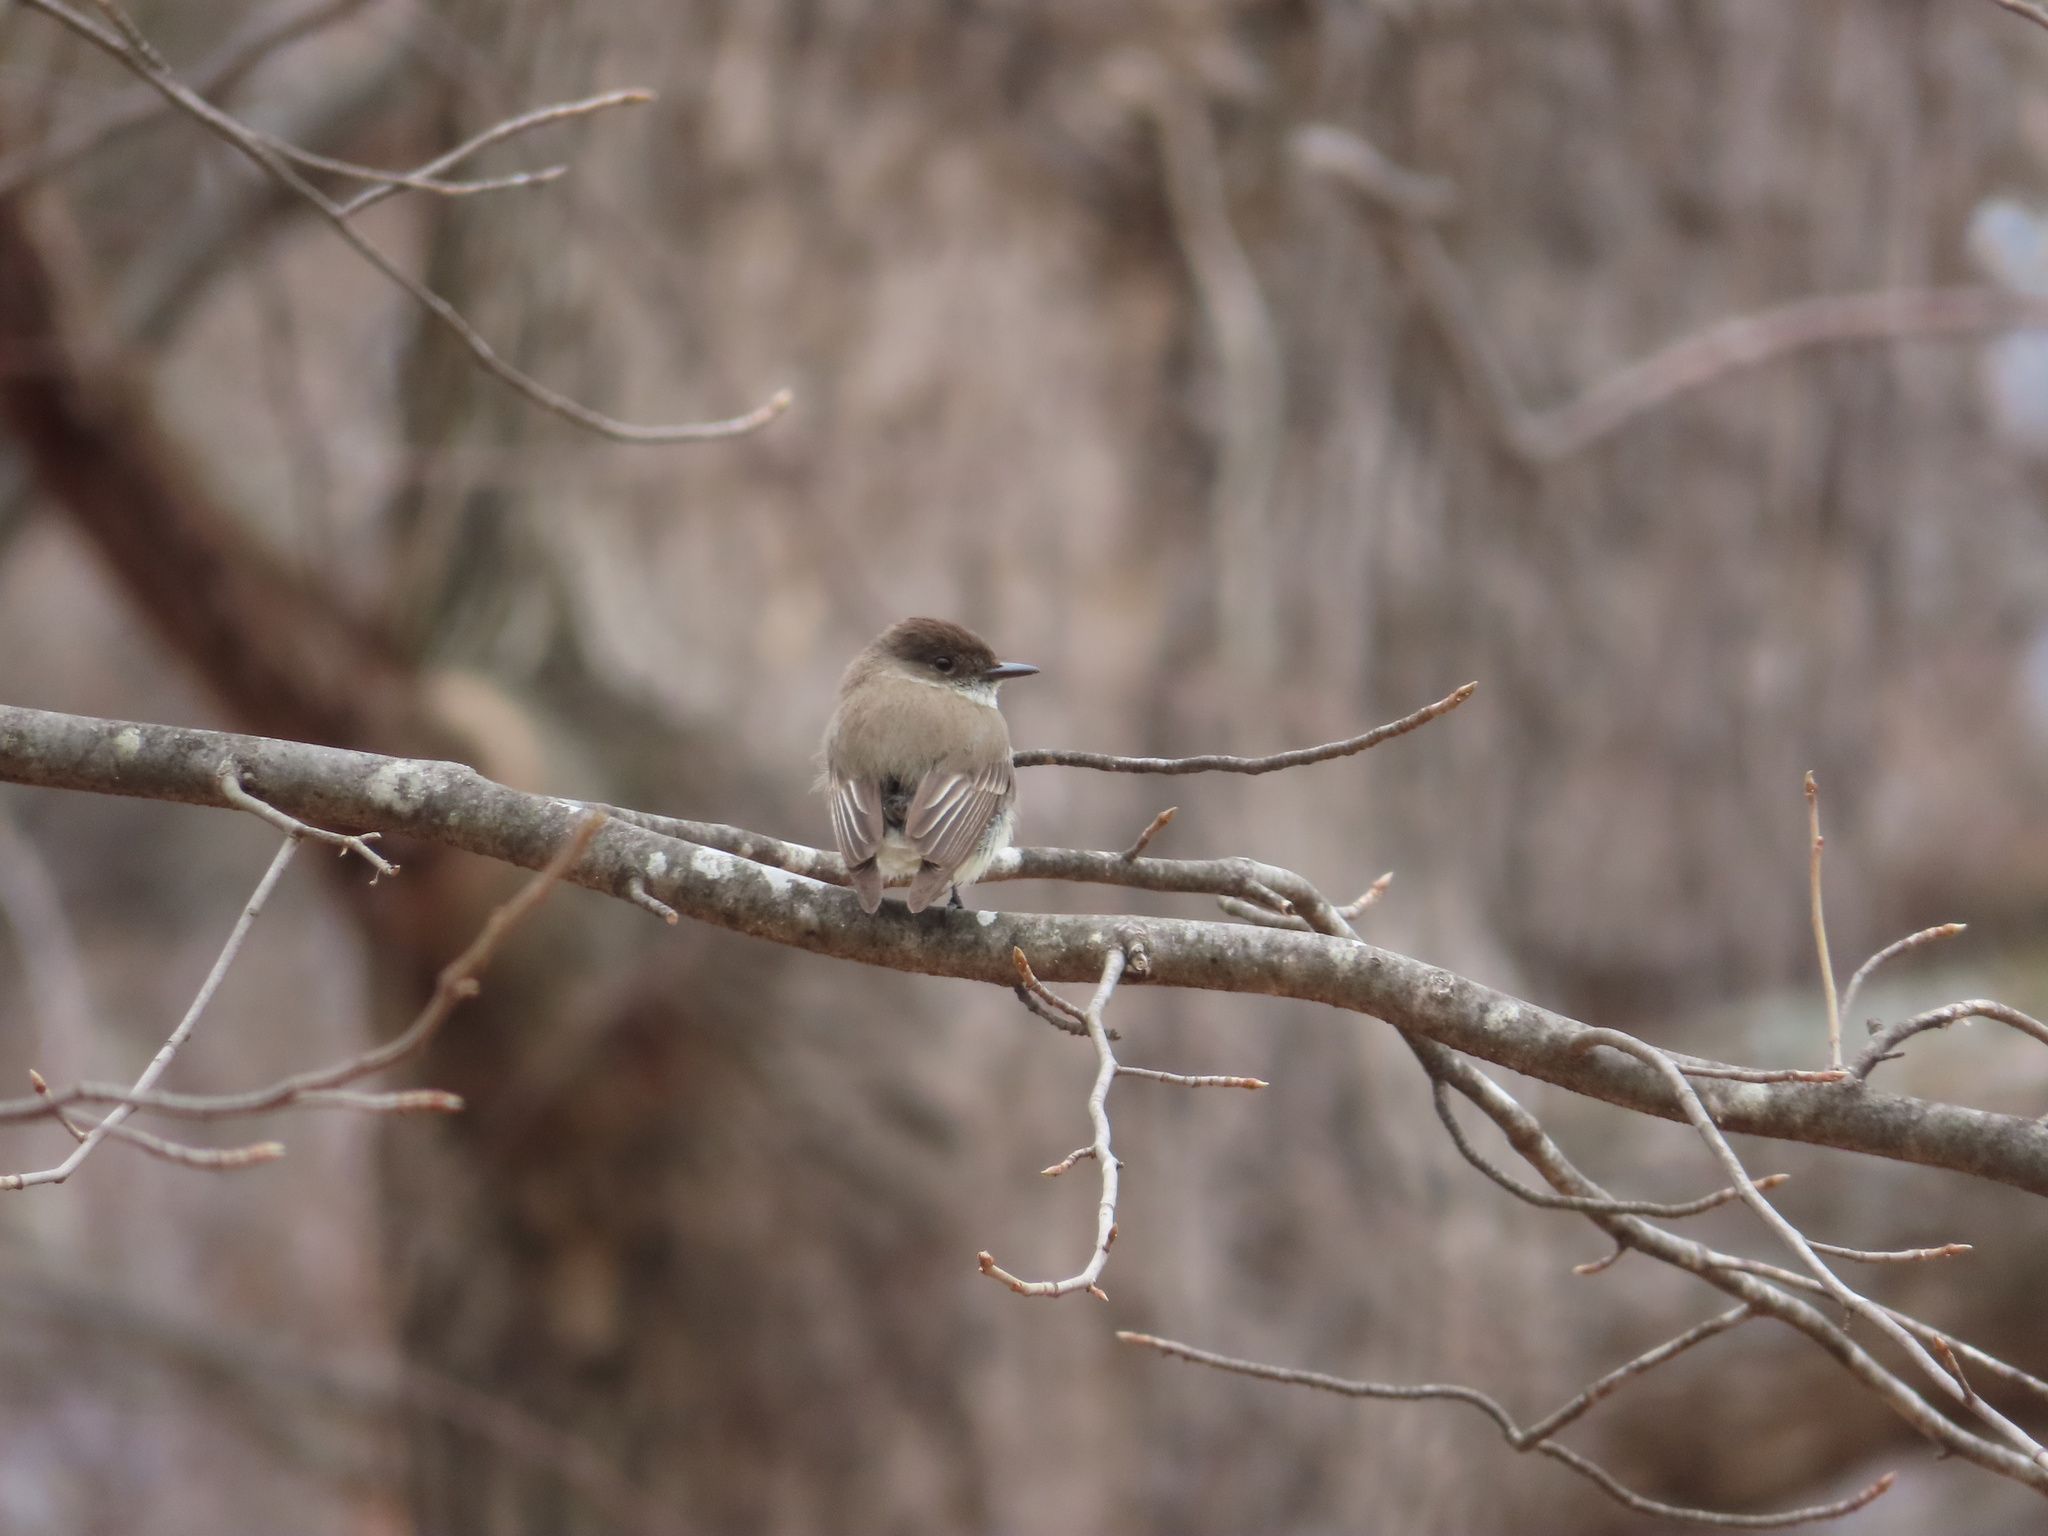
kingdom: Animalia
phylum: Chordata
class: Aves
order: Passeriformes
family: Tyrannidae
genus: Sayornis
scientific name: Sayornis phoebe
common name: Eastern phoebe
